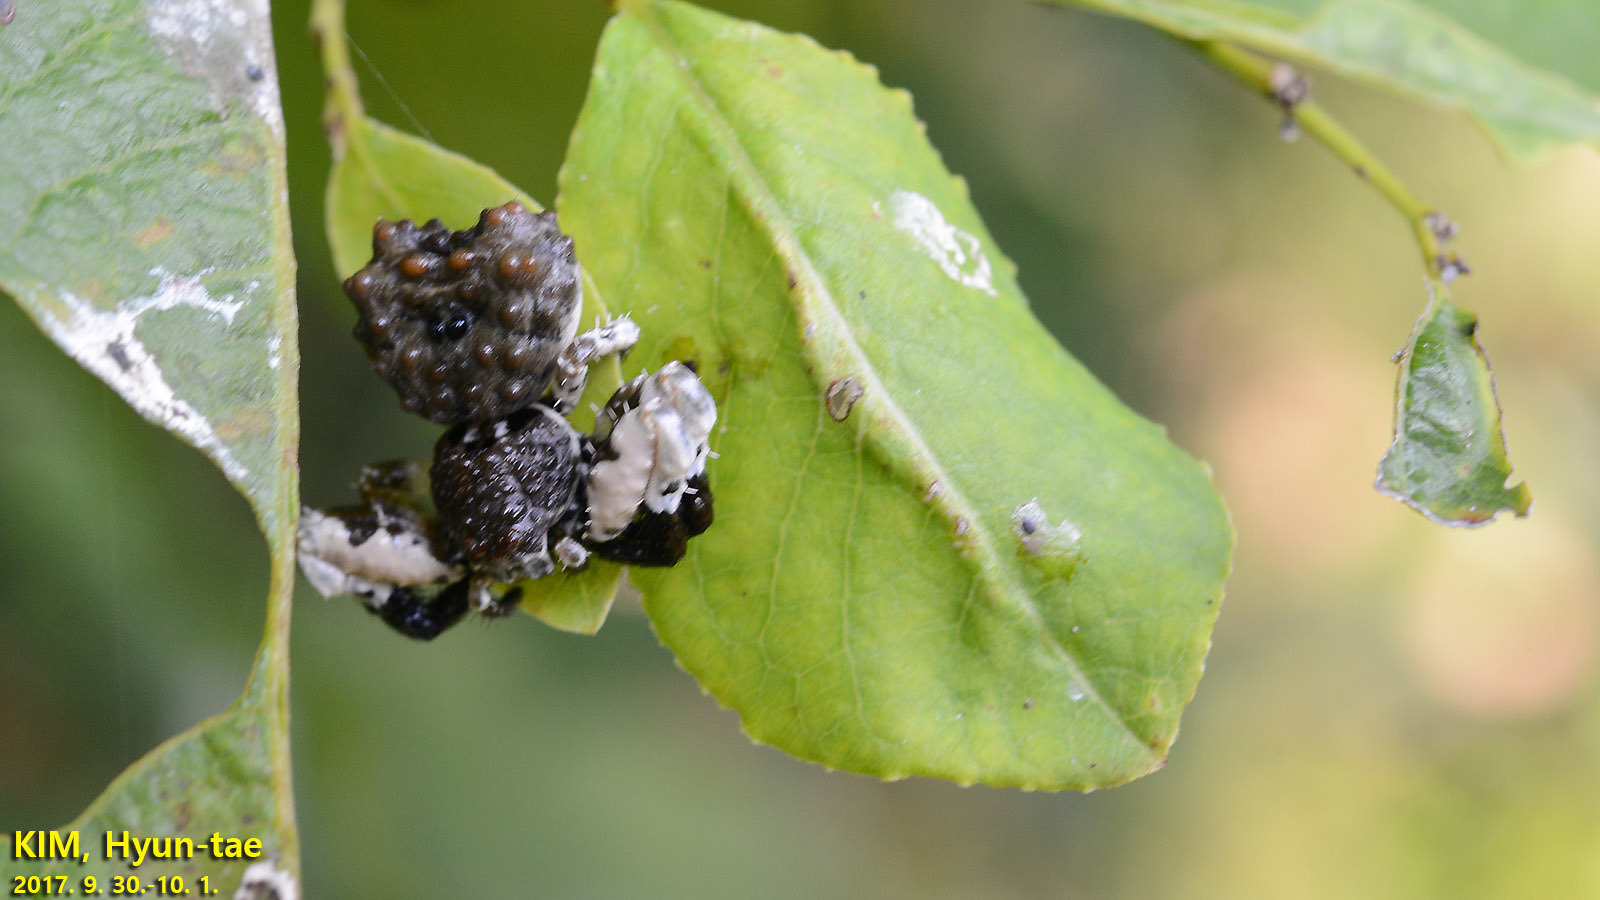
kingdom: Animalia
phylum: Arthropoda
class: Arachnida
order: Araneae
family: Thomisidae
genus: Phrynarachne
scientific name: Phrynarachne katoi
